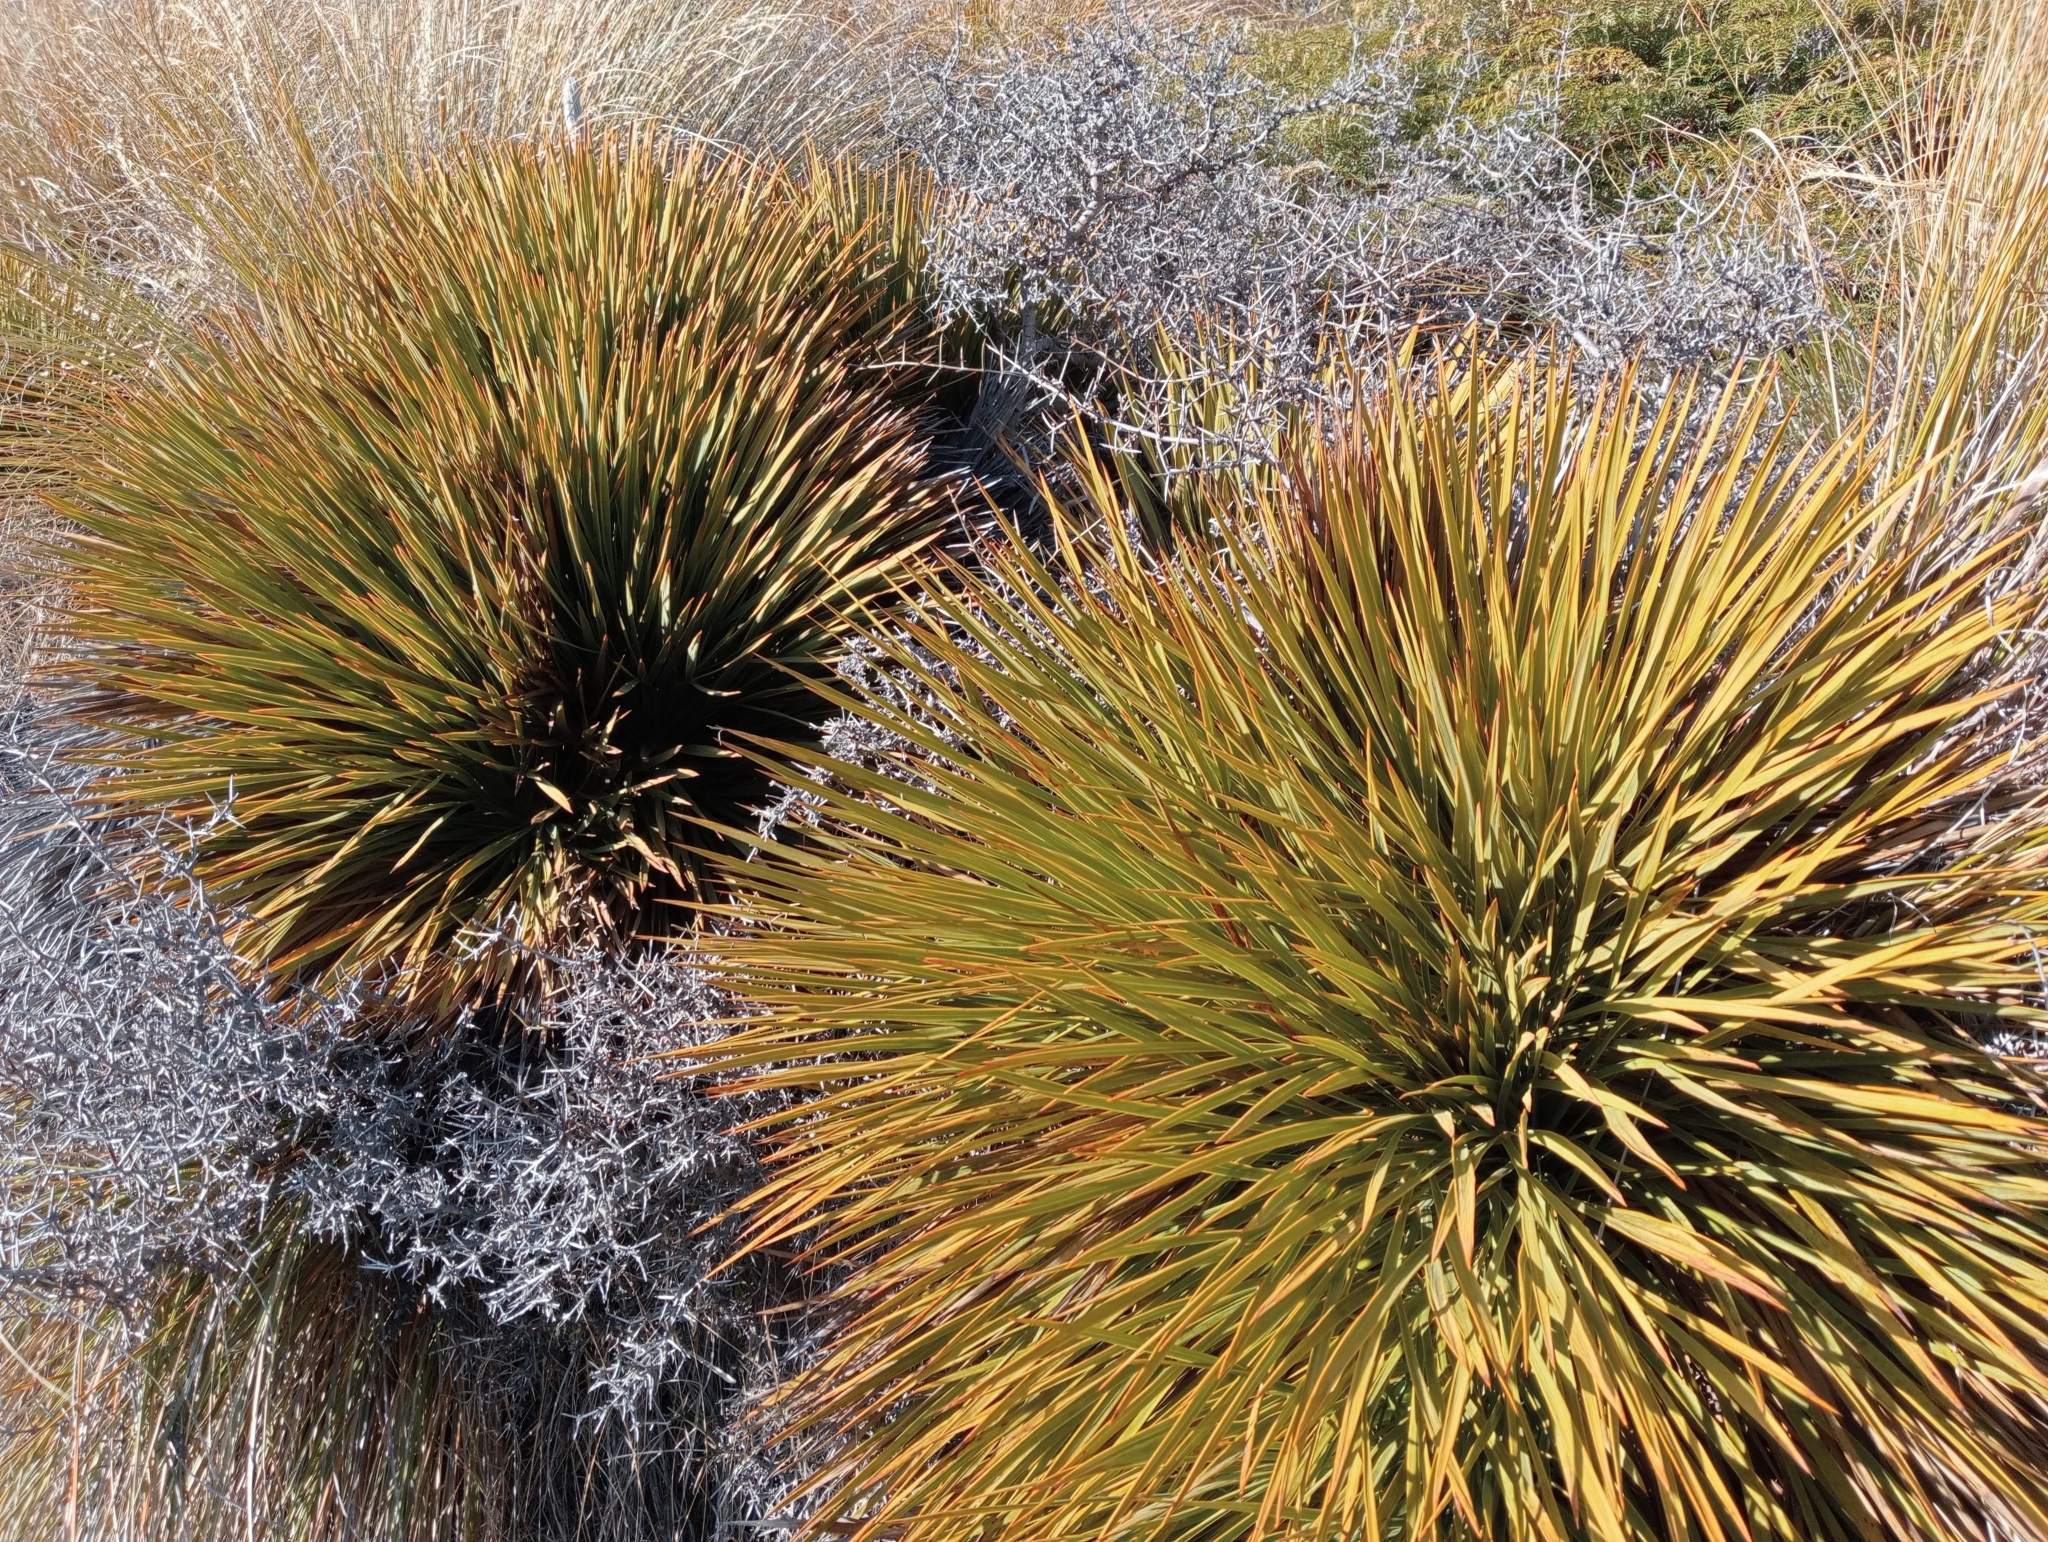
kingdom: Plantae
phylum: Tracheophyta
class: Magnoliopsida
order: Apiales
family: Apiaceae
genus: Aciphylla
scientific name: Aciphylla aurea
